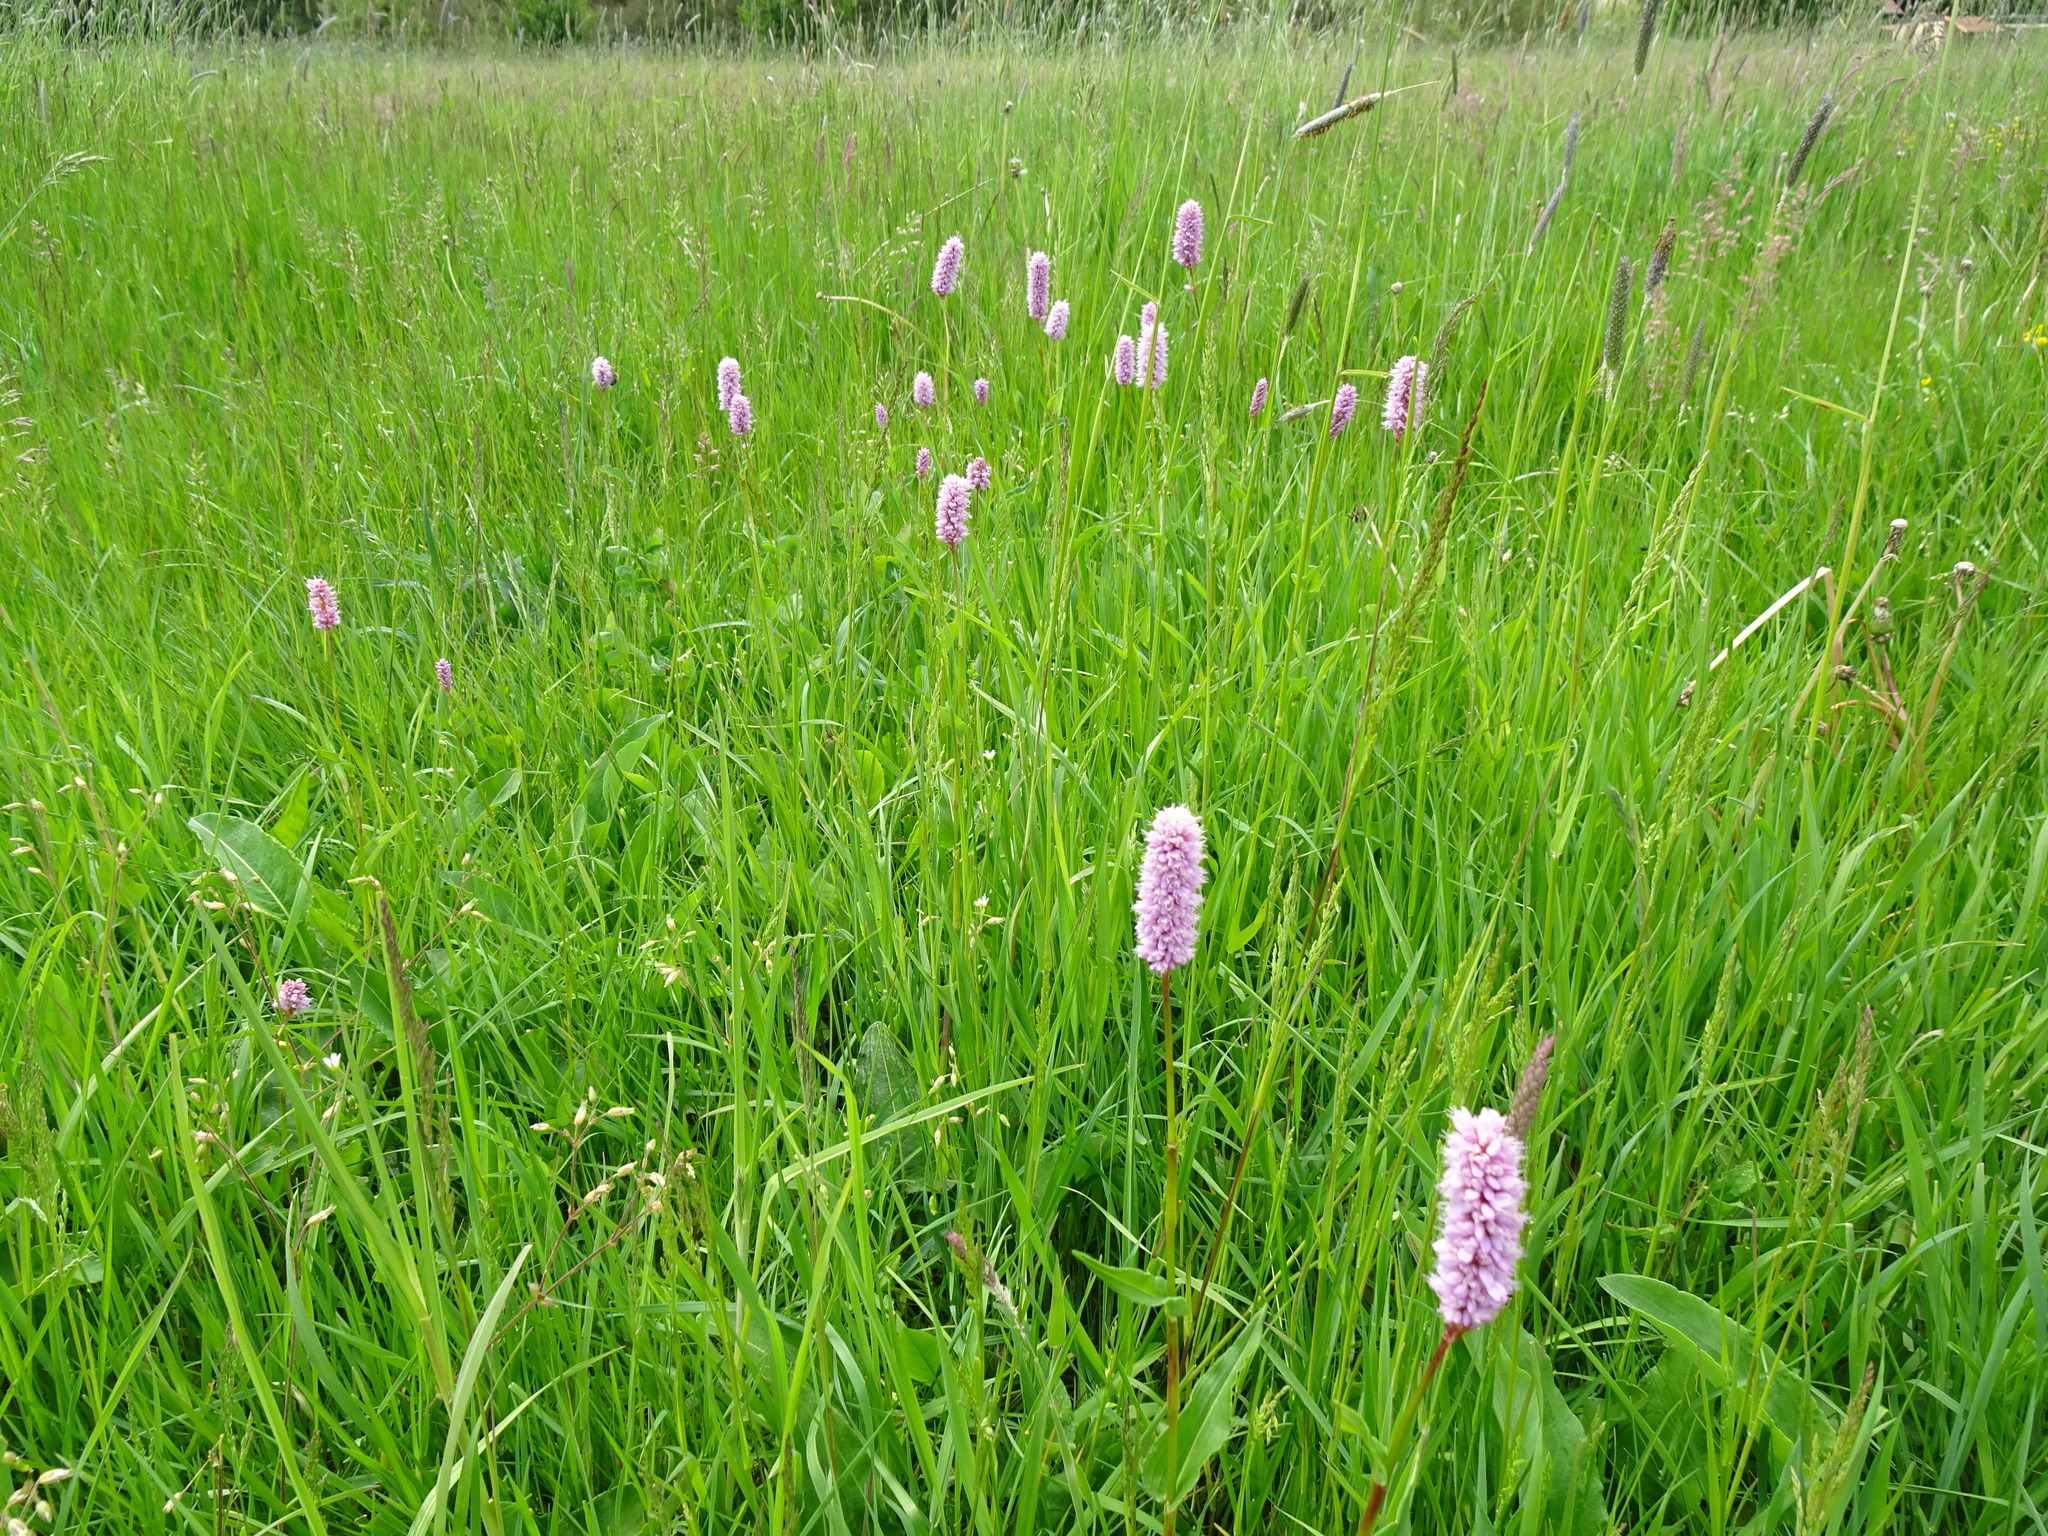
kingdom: Plantae
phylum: Tracheophyta
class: Magnoliopsida
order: Caryophyllales
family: Polygonaceae
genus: Bistorta
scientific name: Bistorta officinalis
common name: Common bistort
